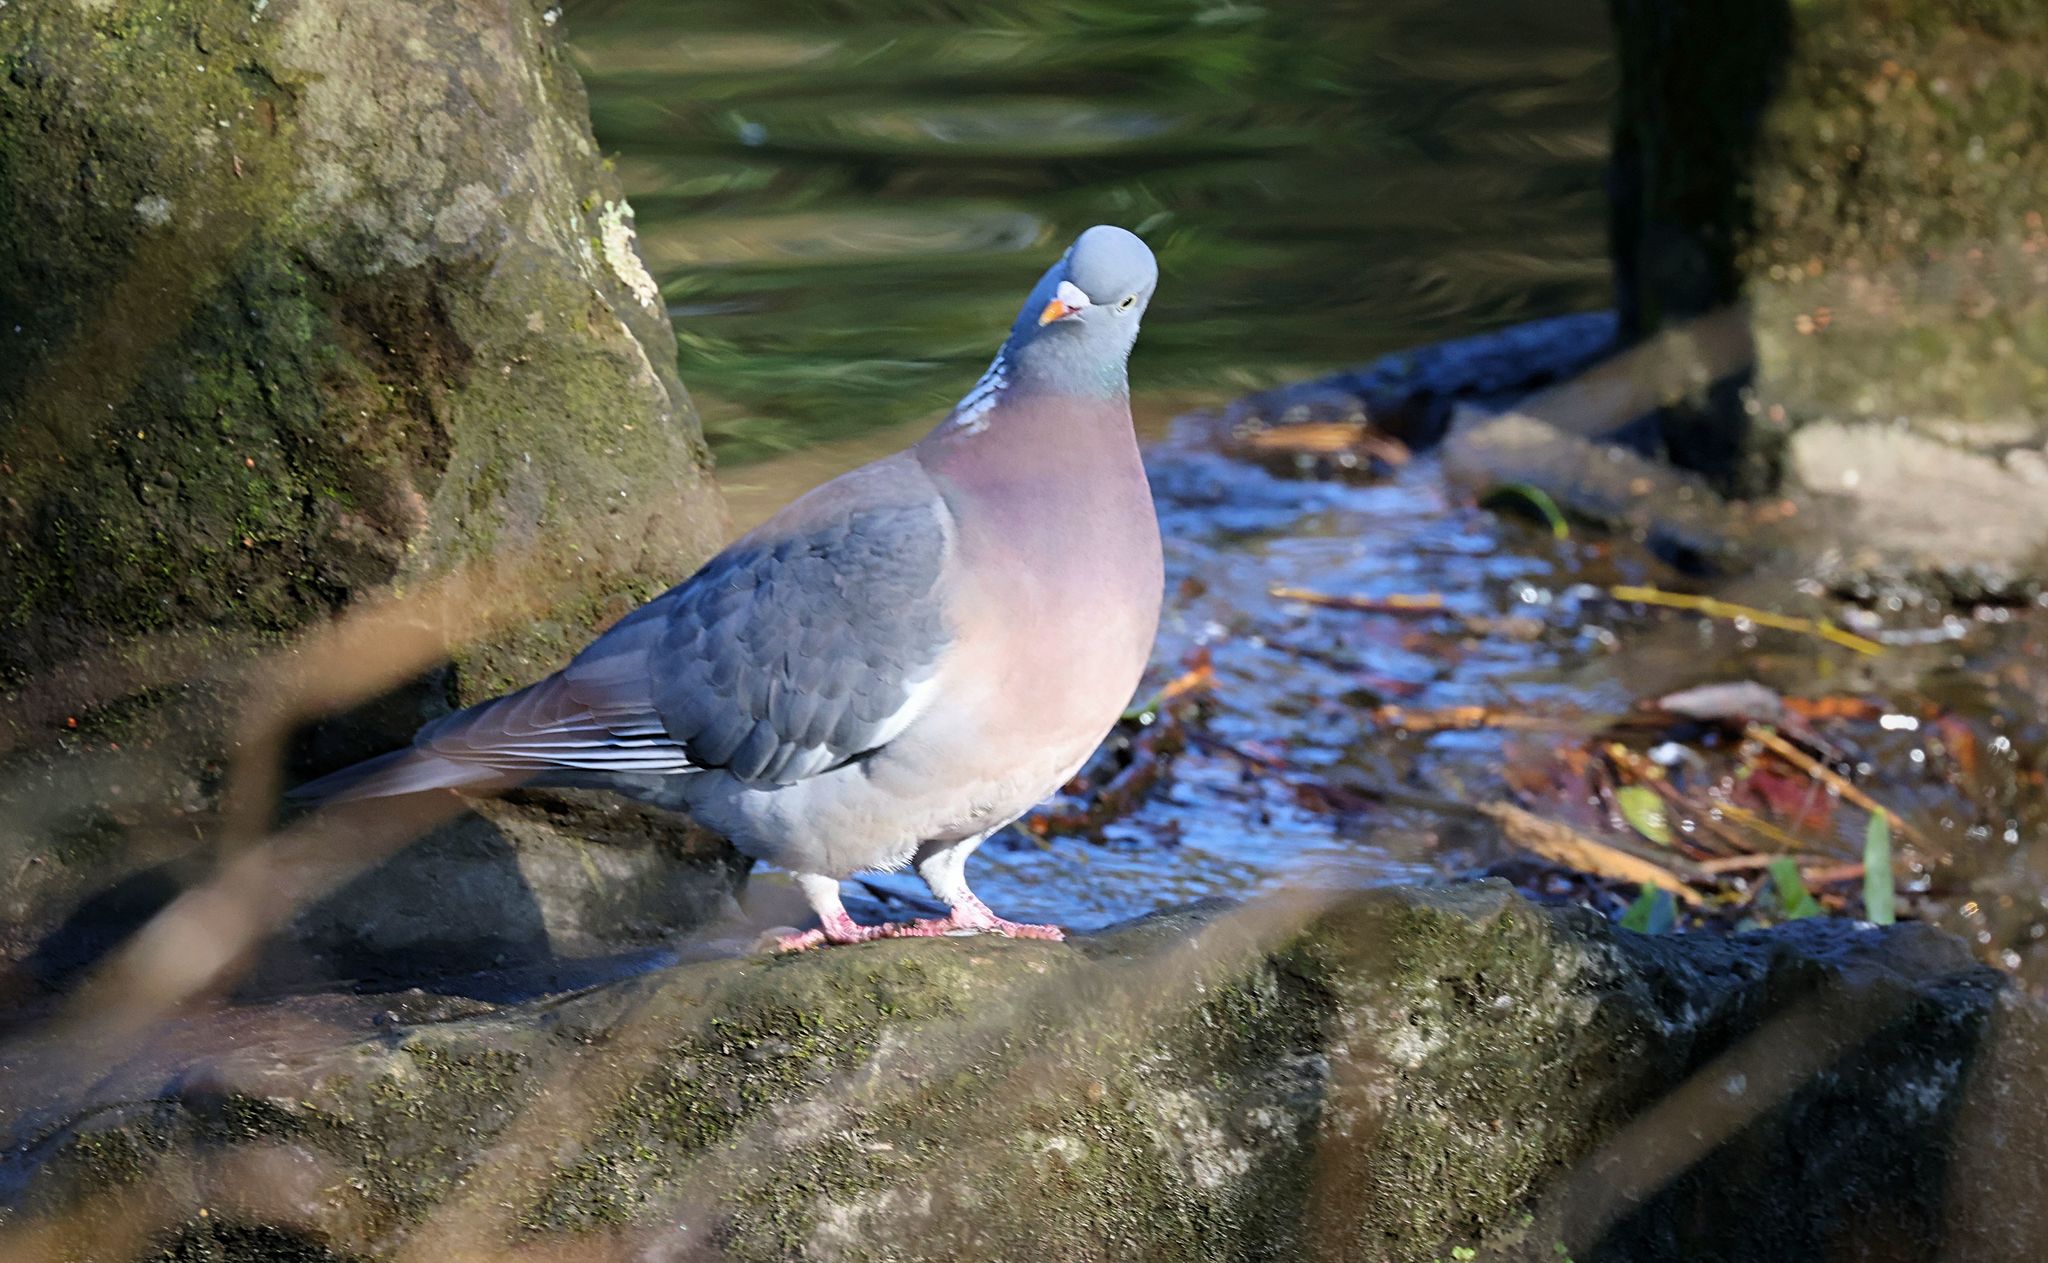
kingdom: Animalia
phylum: Chordata
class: Aves
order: Columbiformes
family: Columbidae
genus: Columba
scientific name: Columba palumbus
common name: Common wood pigeon
